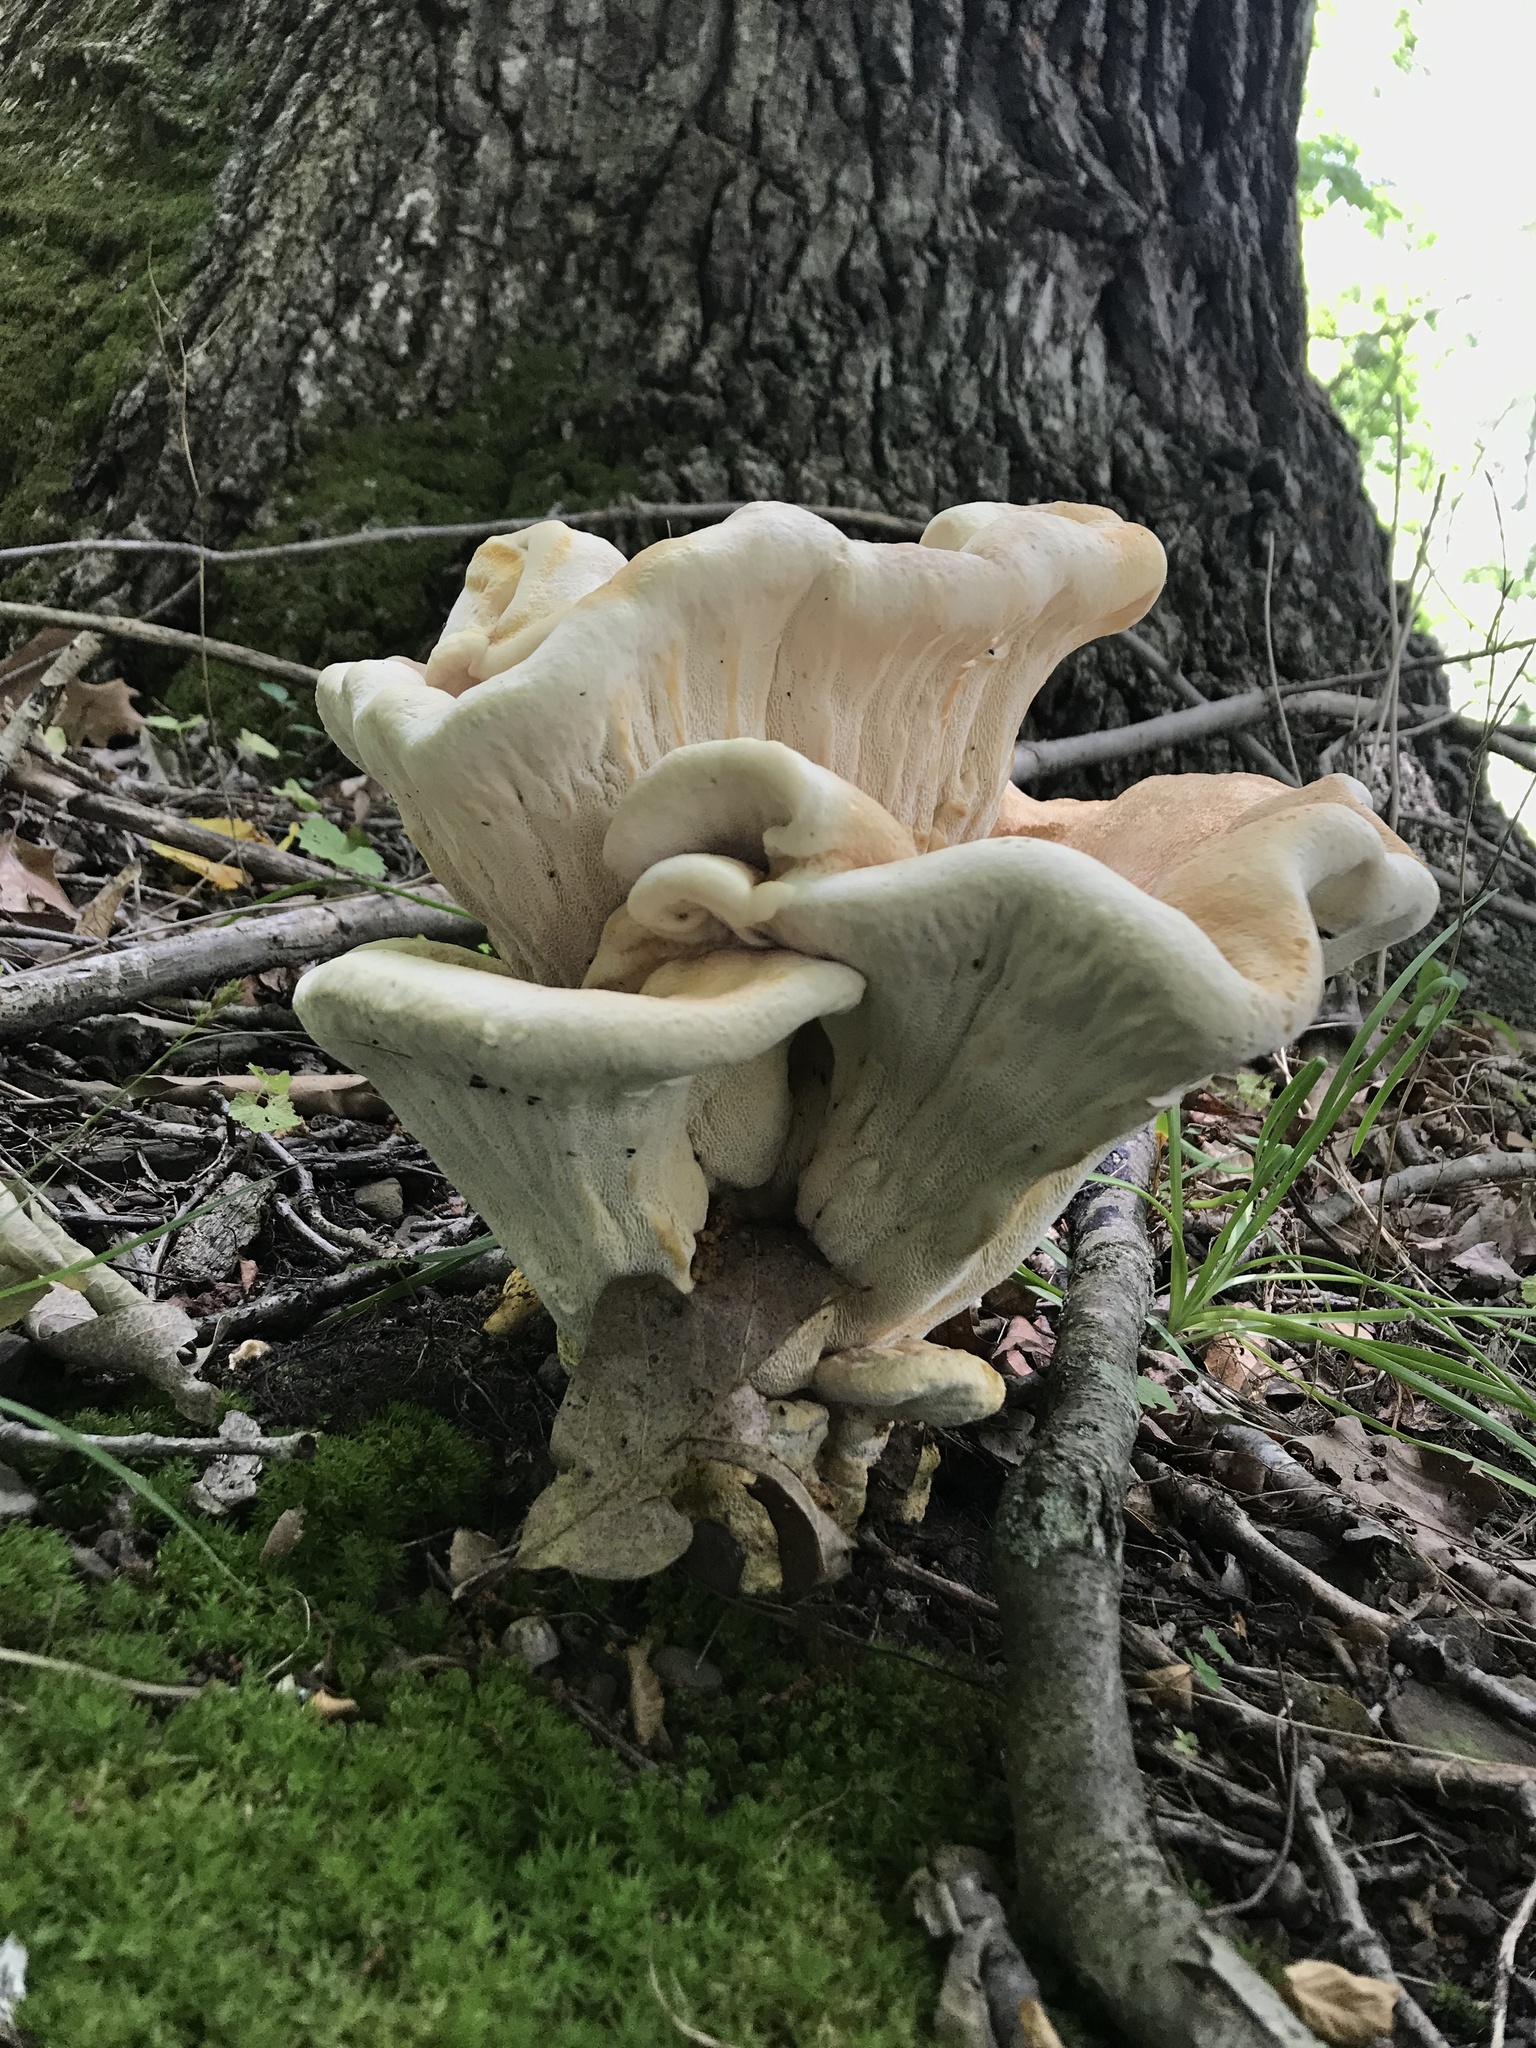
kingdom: Fungi
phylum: Basidiomycota
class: Agaricomycetes
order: Russulales
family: Bondarzewiaceae
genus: Bondarzewia
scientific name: Bondarzewia berkeleyi
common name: Berkeley's polypore
